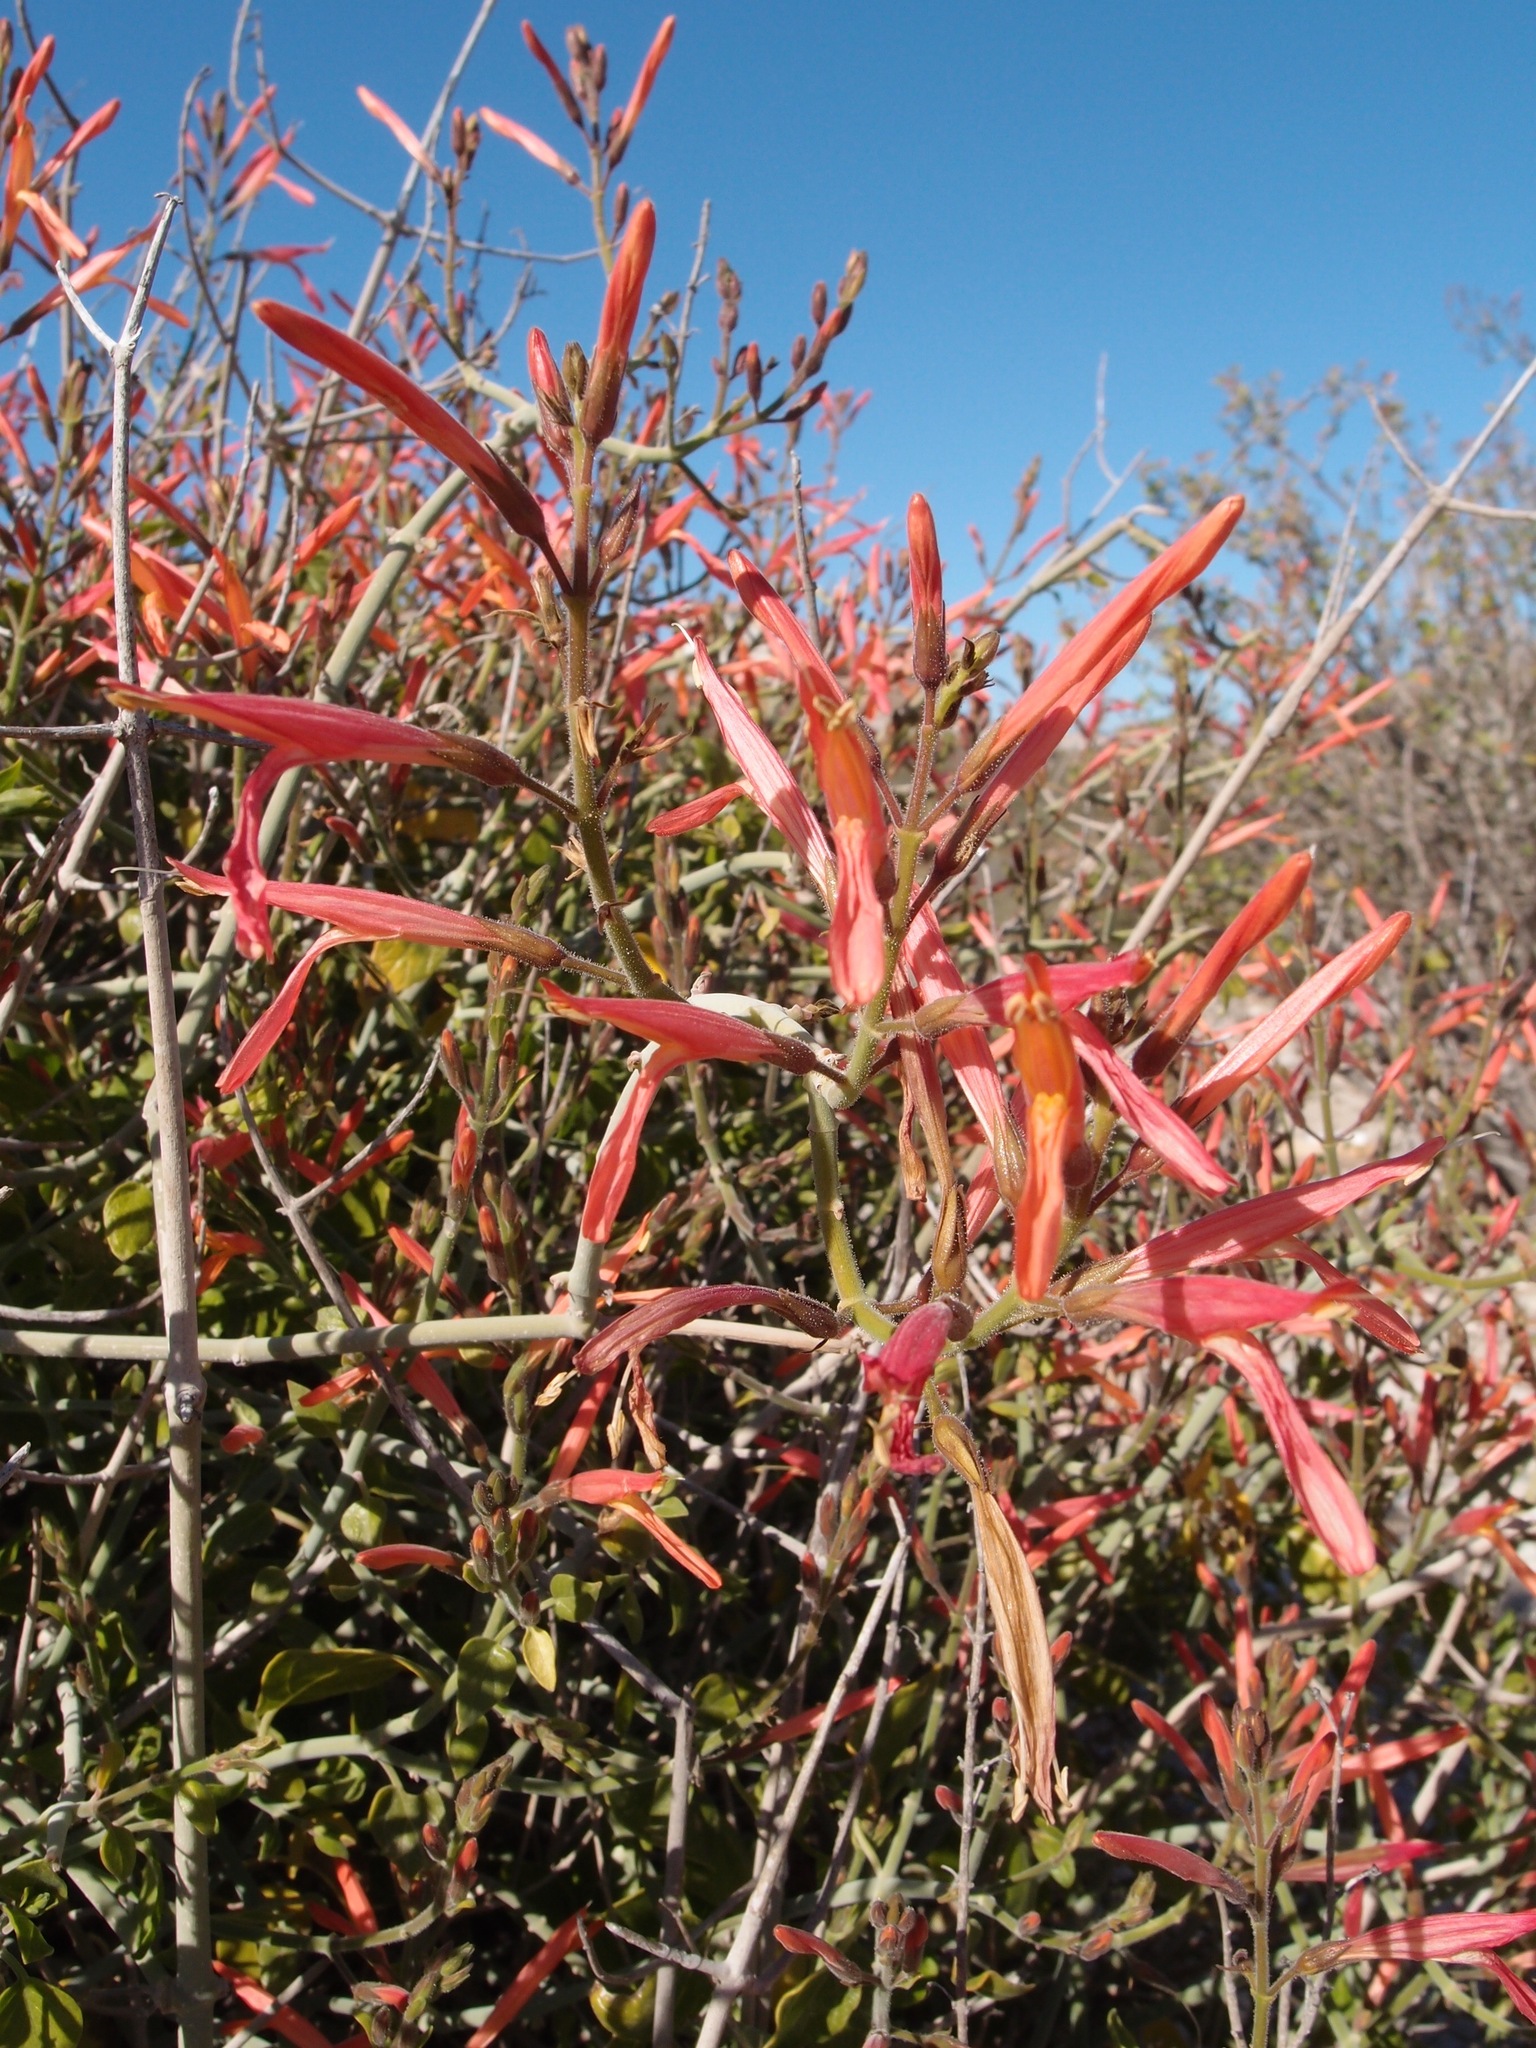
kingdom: Plantae
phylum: Tracheophyta
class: Magnoliopsida
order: Lamiales
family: Acanthaceae
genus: Justicia
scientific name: Justicia californica
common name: Chuparosa-honeysuckle
